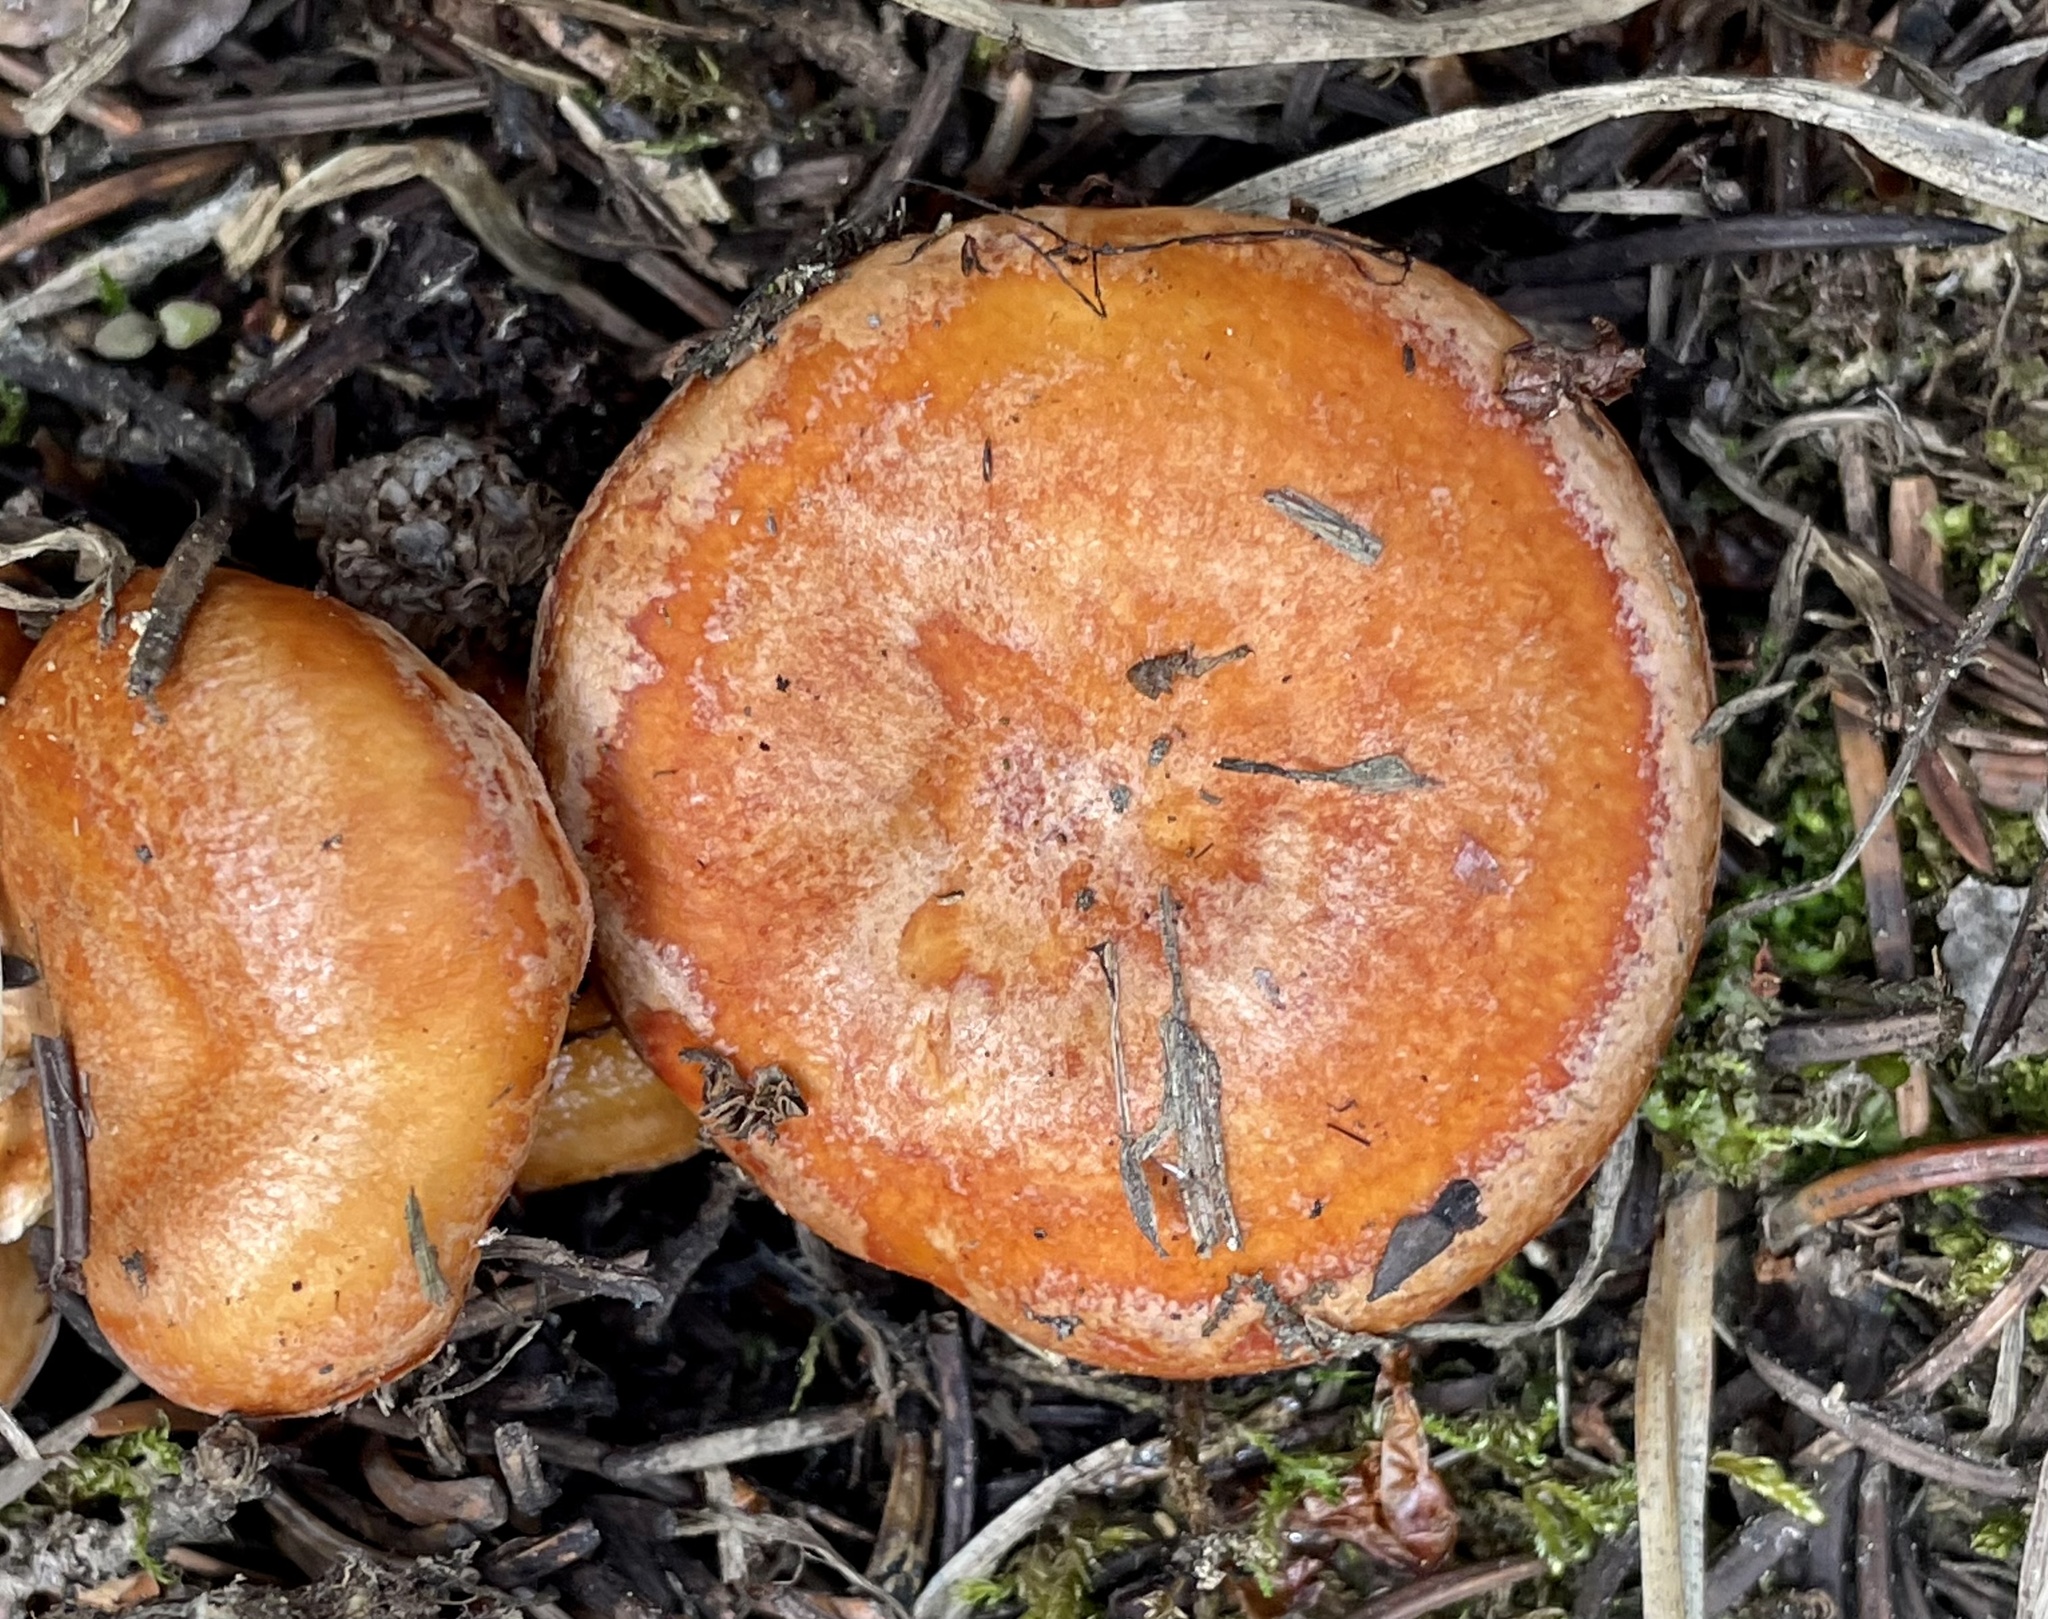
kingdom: Fungi
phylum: Basidiomycota
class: Agaricomycetes
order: Russulales
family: Russulaceae
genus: Lactarius
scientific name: Lactarius olympianus
